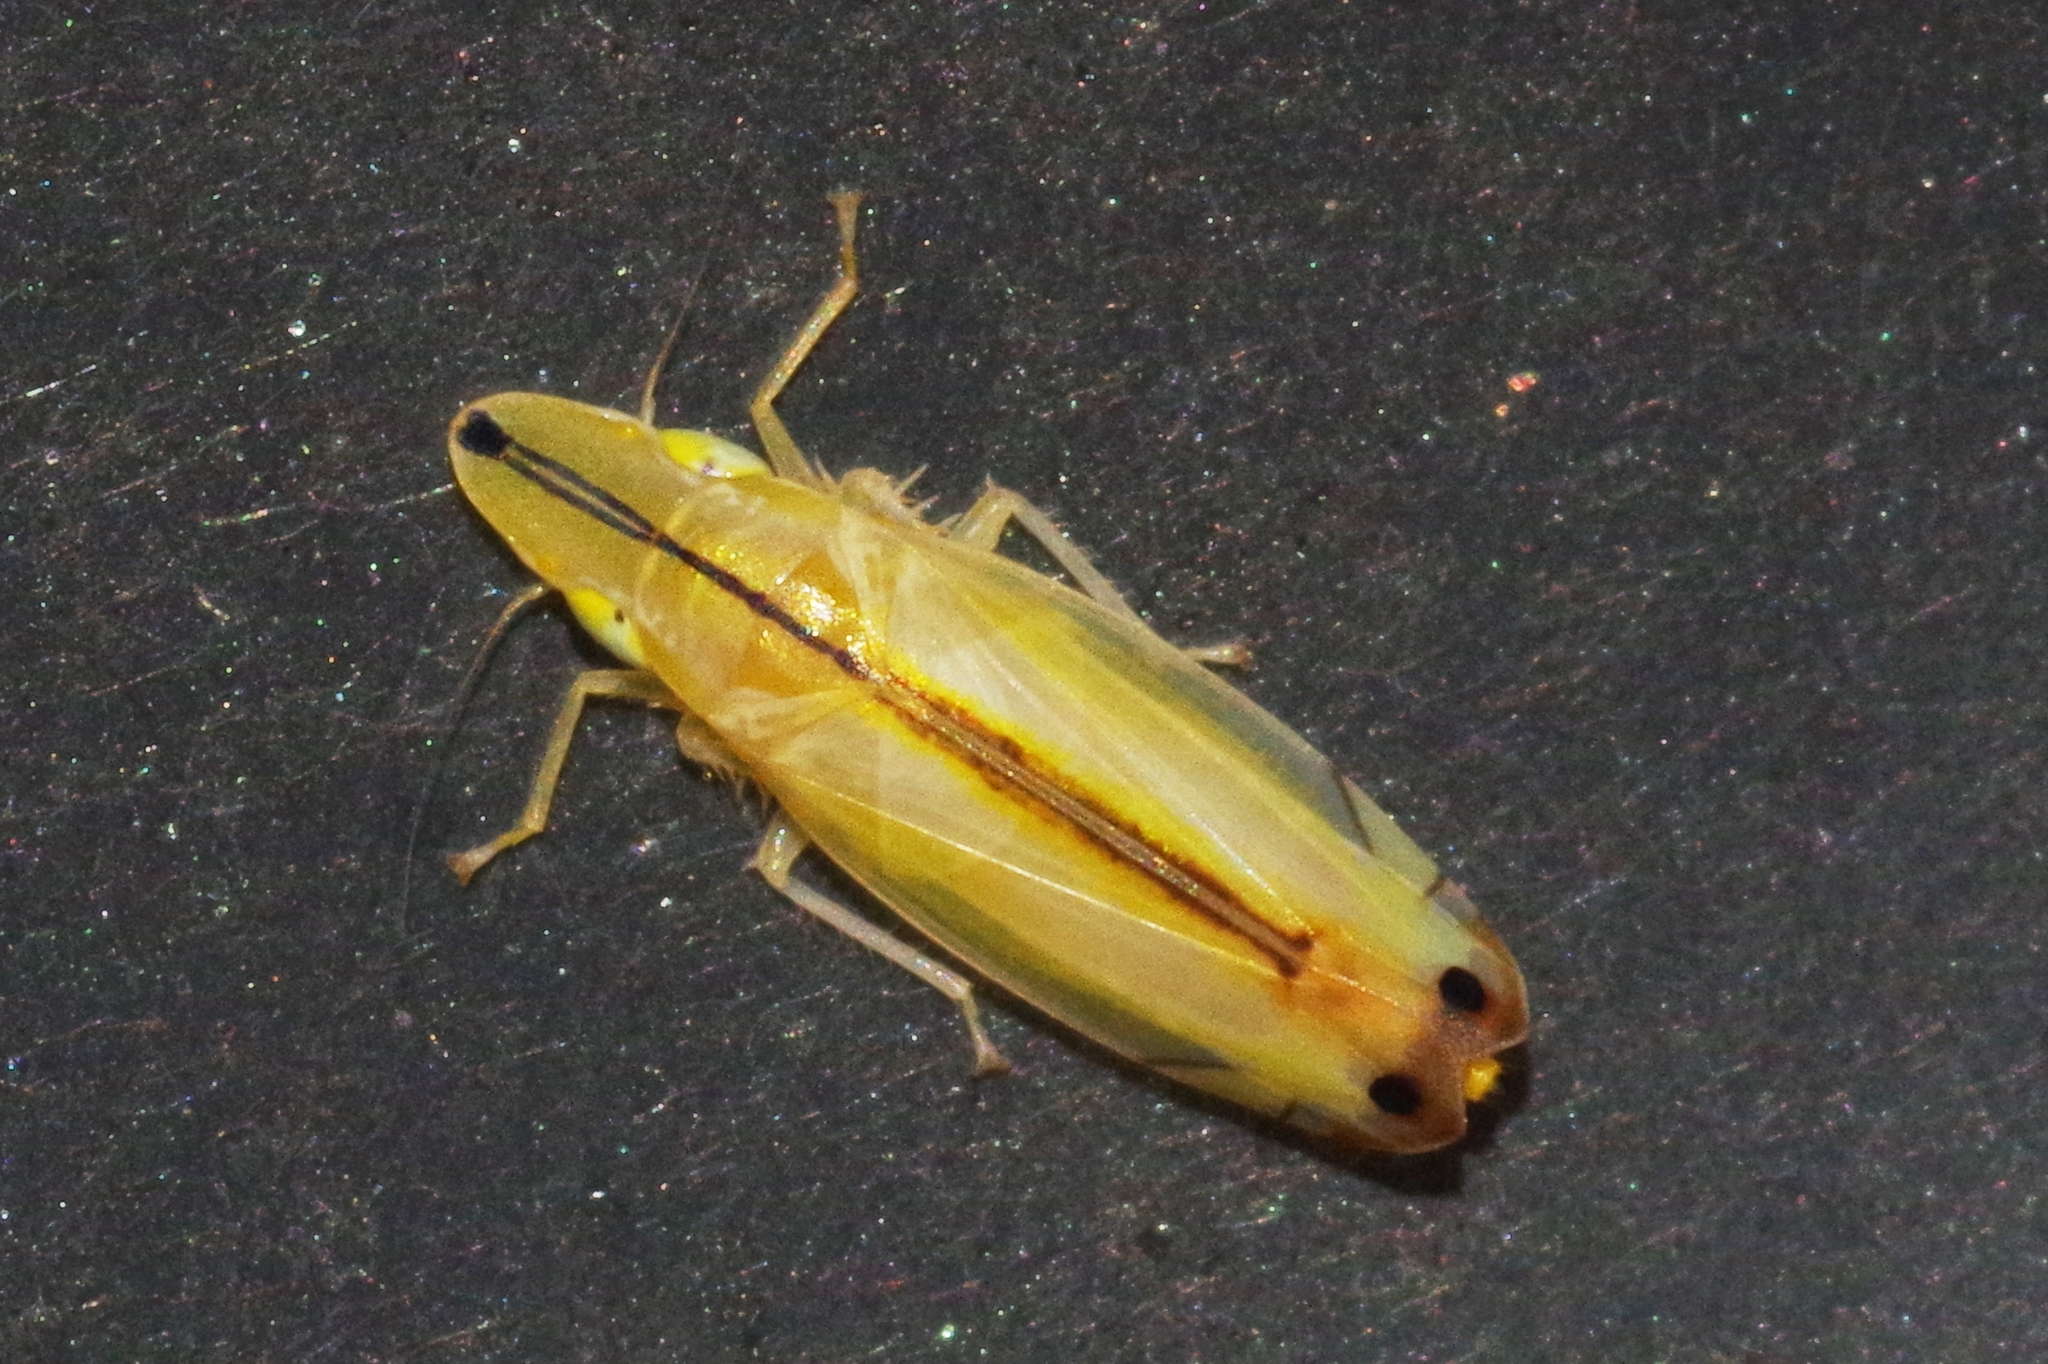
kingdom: Animalia
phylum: Arthropoda
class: Insecta
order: Hemiptera
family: Cicadellidae
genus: Sophonia
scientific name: Sophonia orientalis
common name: Two-spotted leafhopper
